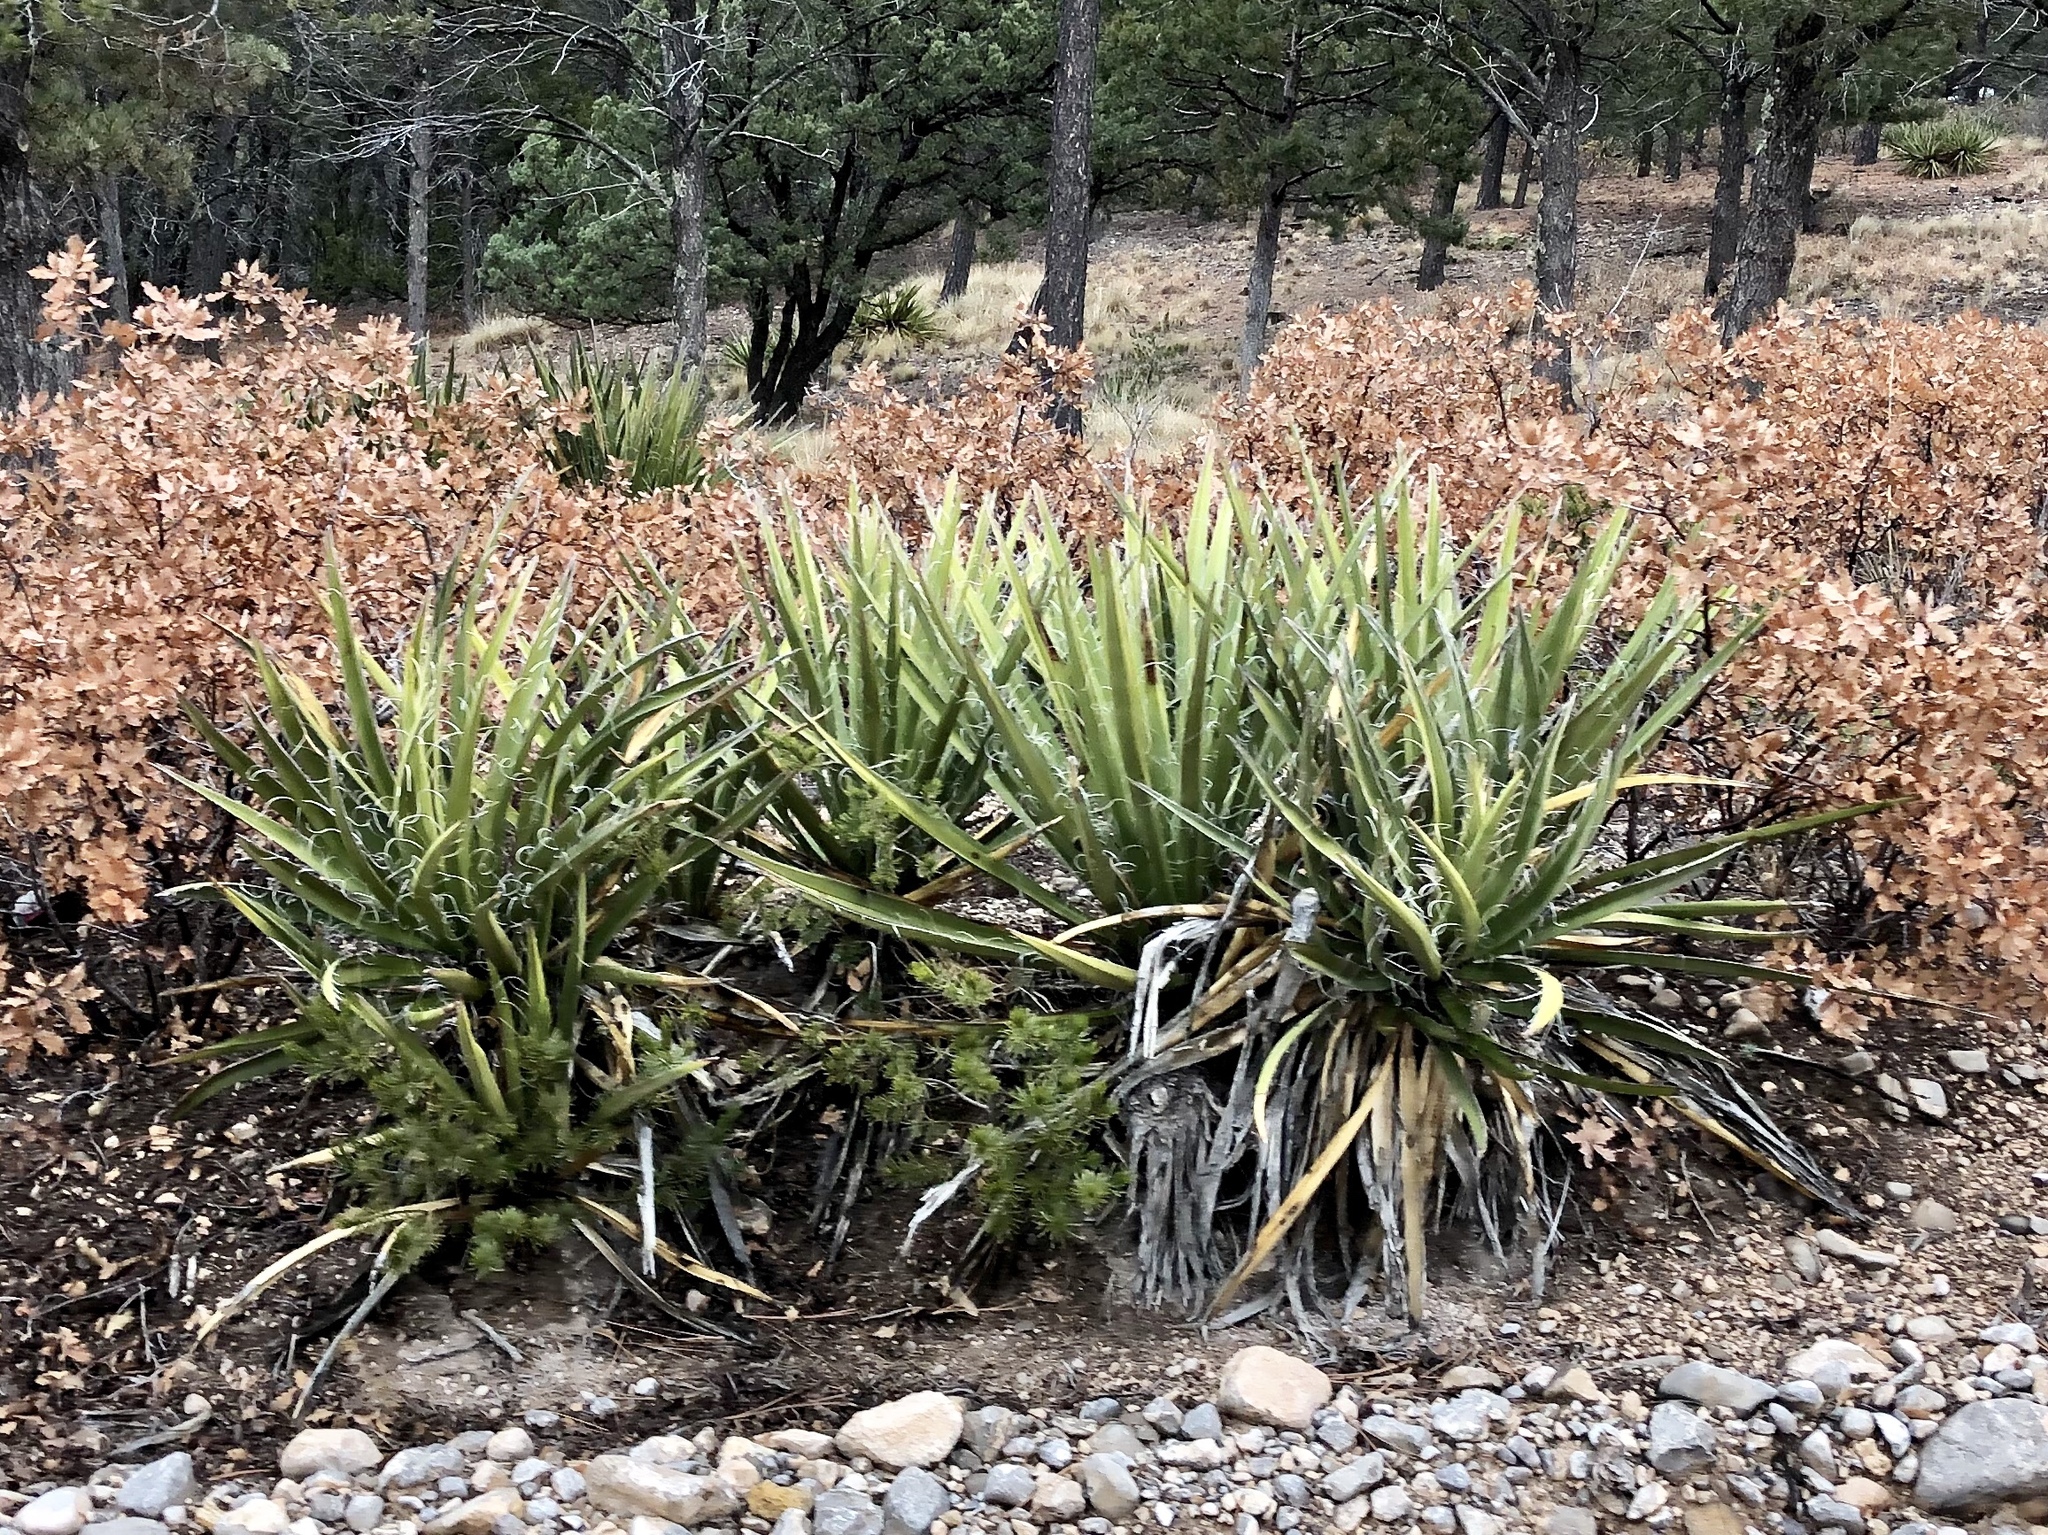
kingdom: Plantae
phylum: Tracheophyta
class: Liliopsida
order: Asparagales
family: Asparagaceae
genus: Yucca
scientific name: Yucca baccata
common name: Banana yucca
